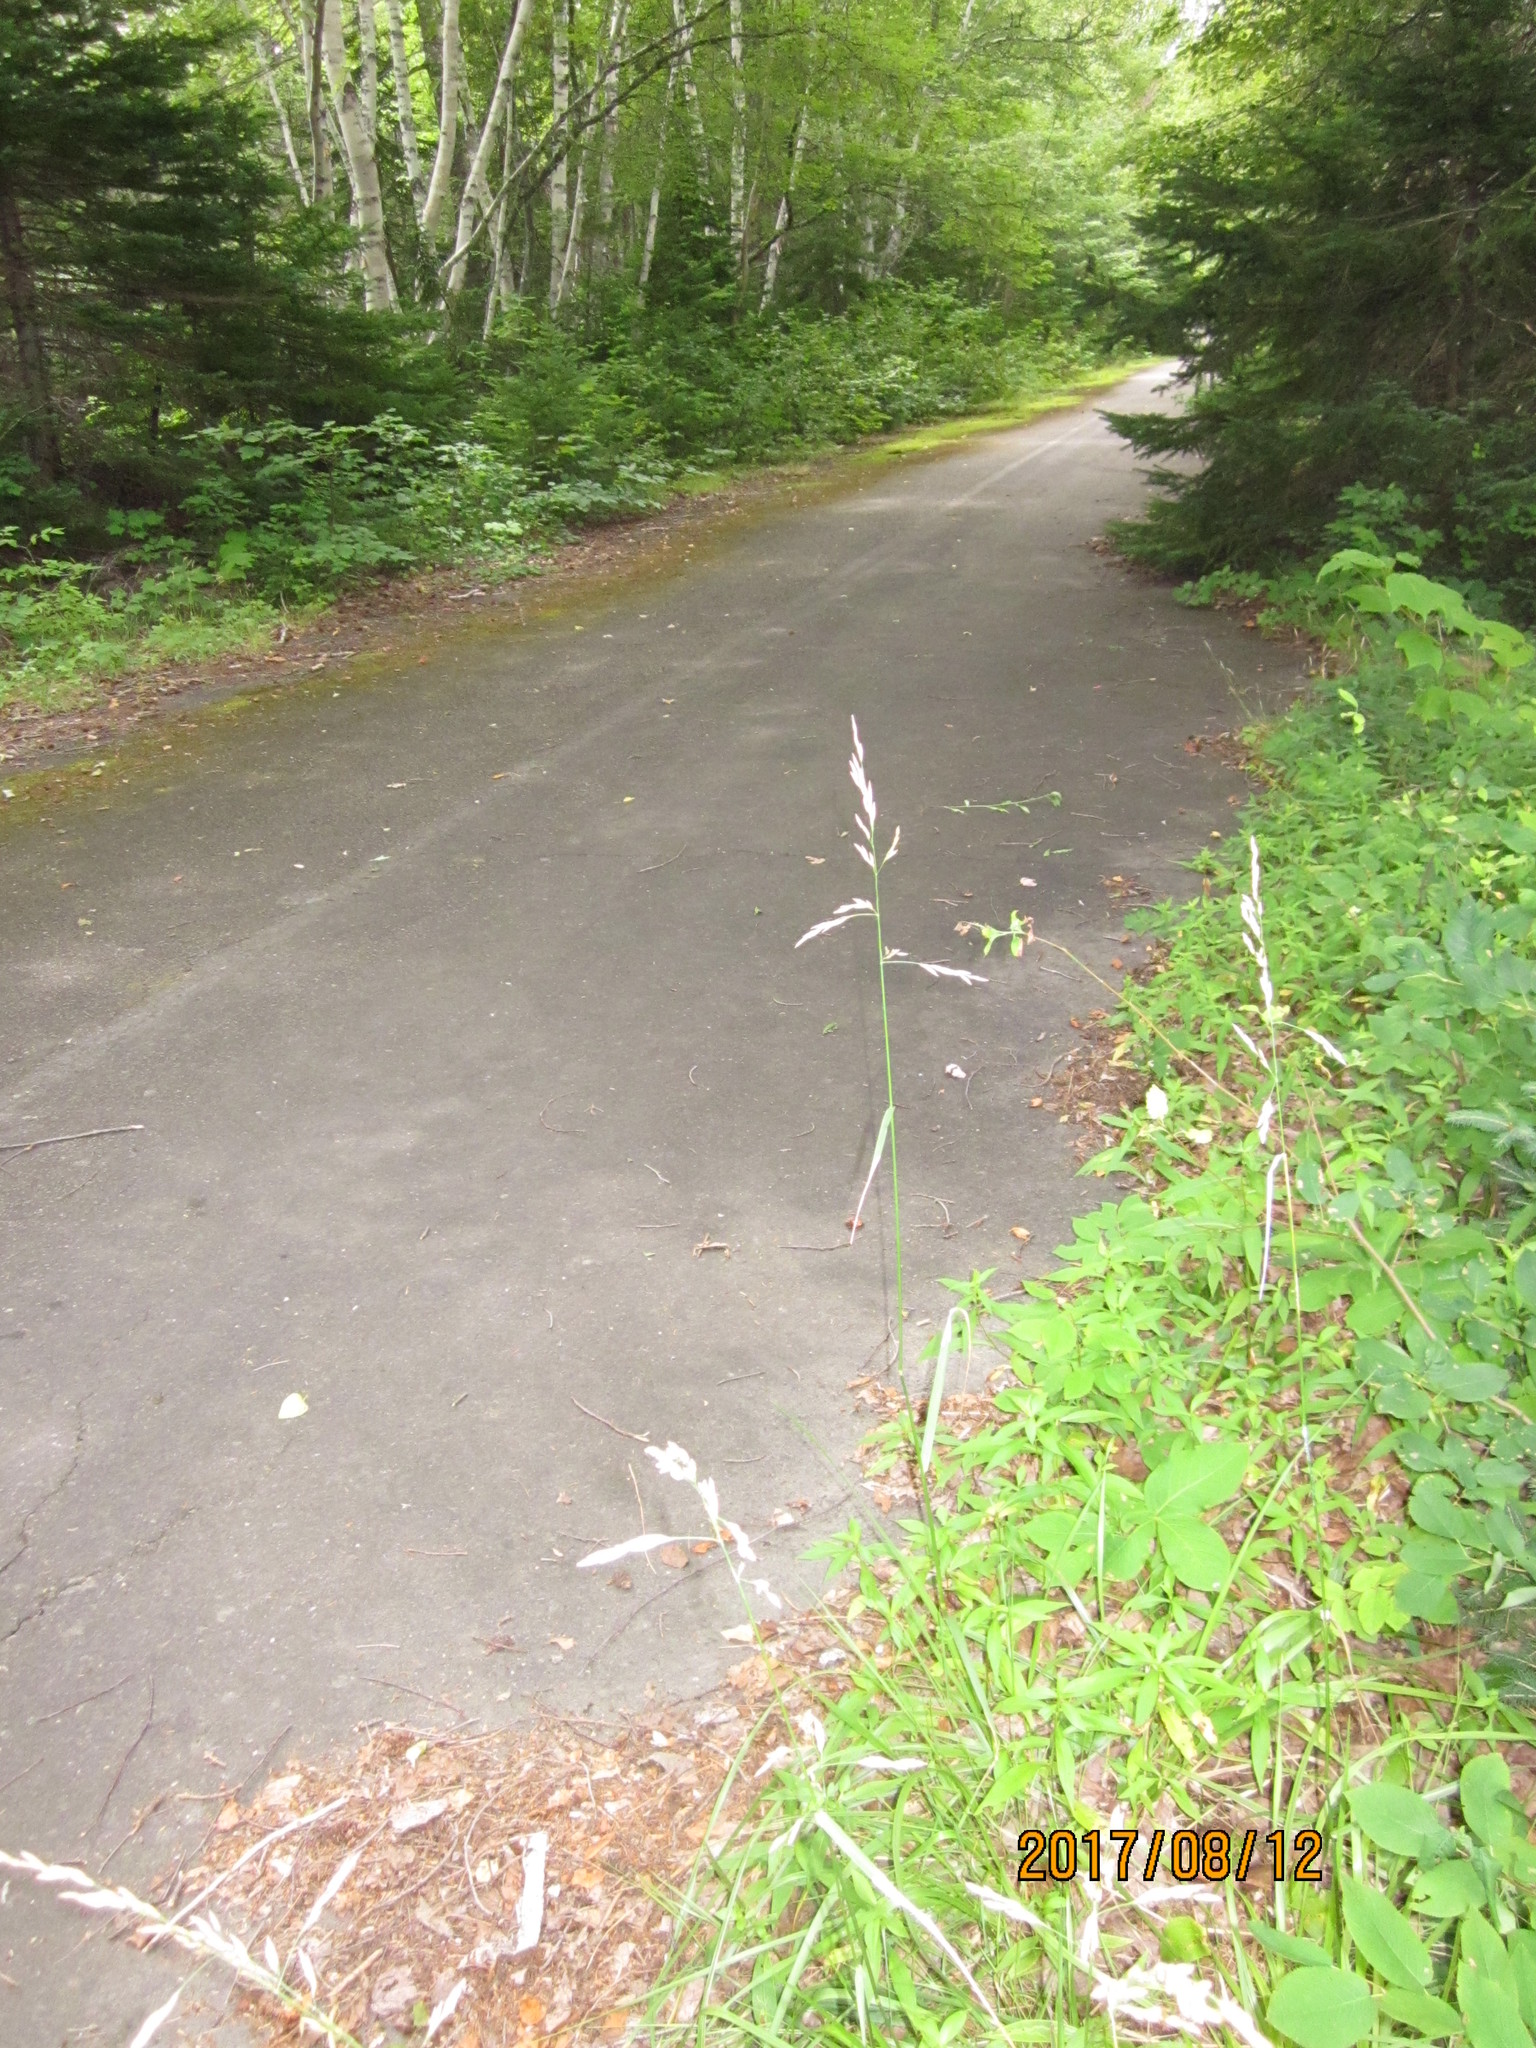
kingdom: Plantae
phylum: Tracheophyta
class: Liliopsida
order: Poales
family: Poaceae
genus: Lolium
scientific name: Lolium arundinaceum
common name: Reed fescue
